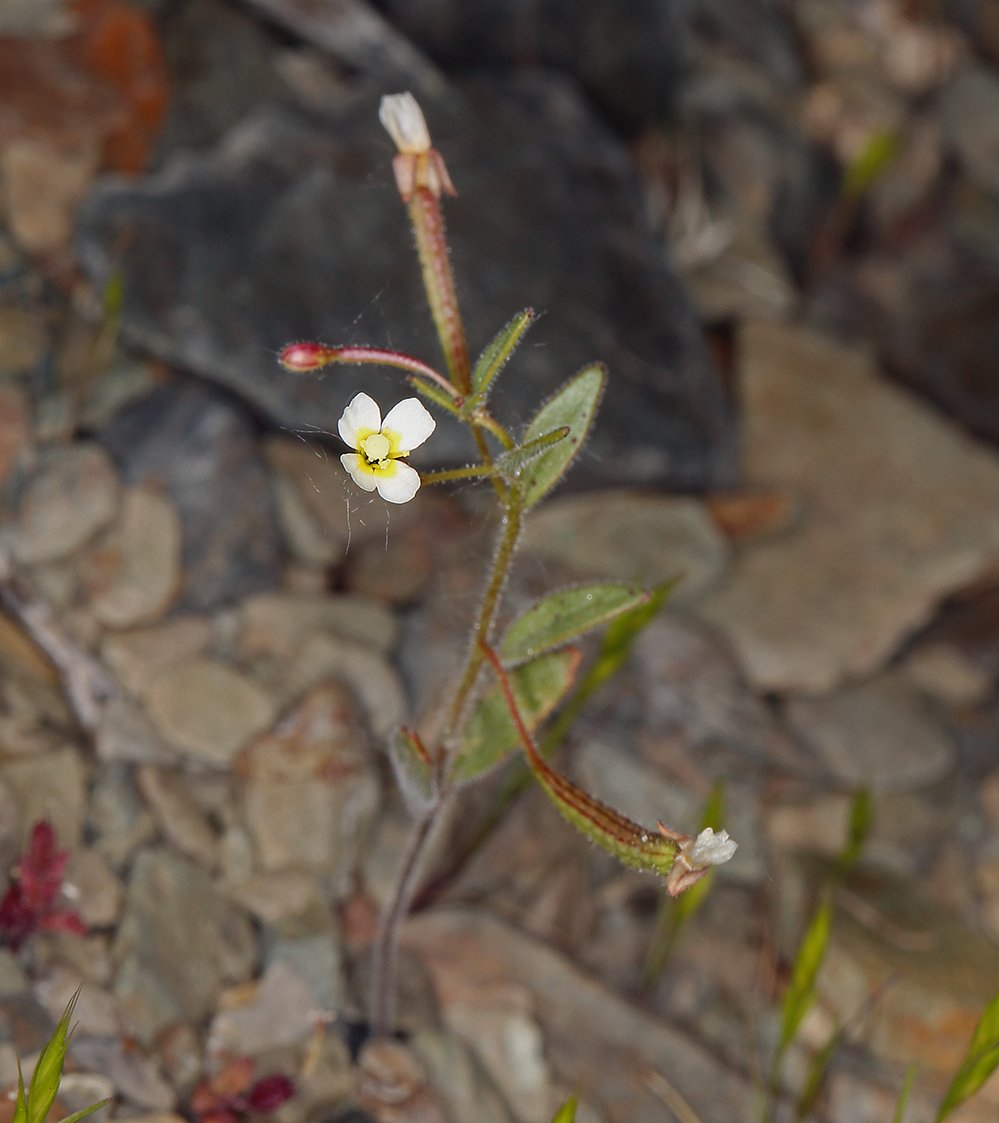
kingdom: Plantae
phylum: Tracheophyta
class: Magnoliopsida
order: Myrtales
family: Onagraceae
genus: Chylismiella
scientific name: Chylismiella pterosperma
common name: Wingfruit suncup
